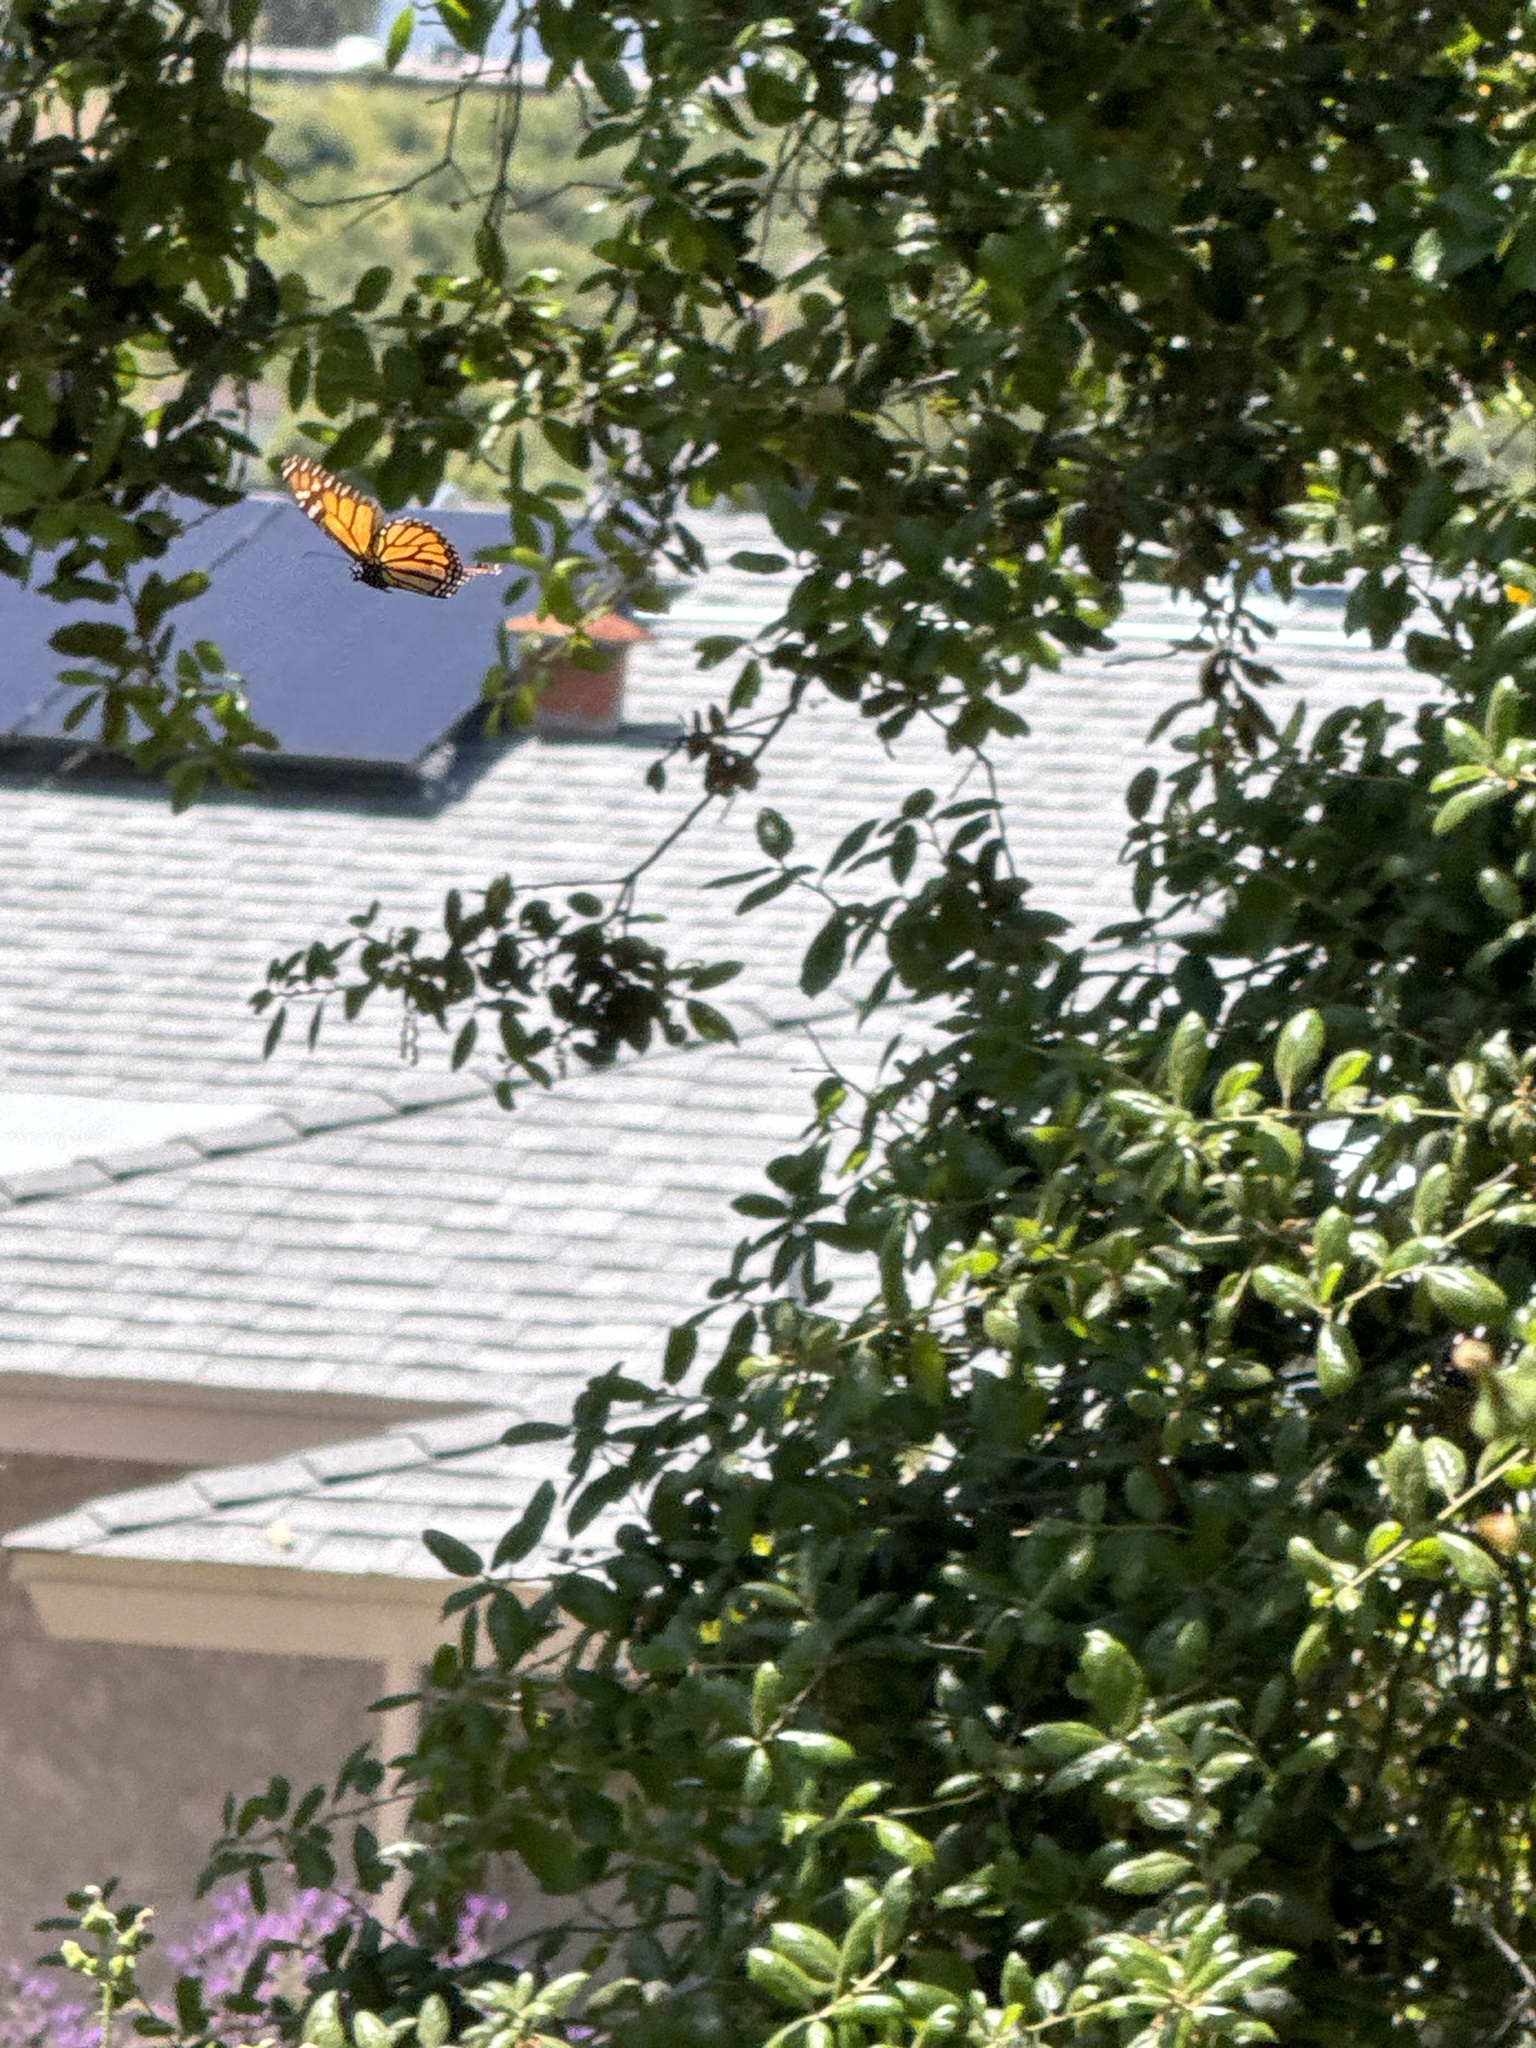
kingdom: Animalia
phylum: Arthropoda
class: Insecta
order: Lepidoptera
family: Nymphalidae
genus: Danaus
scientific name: Danaus plexippus
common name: Monarch
